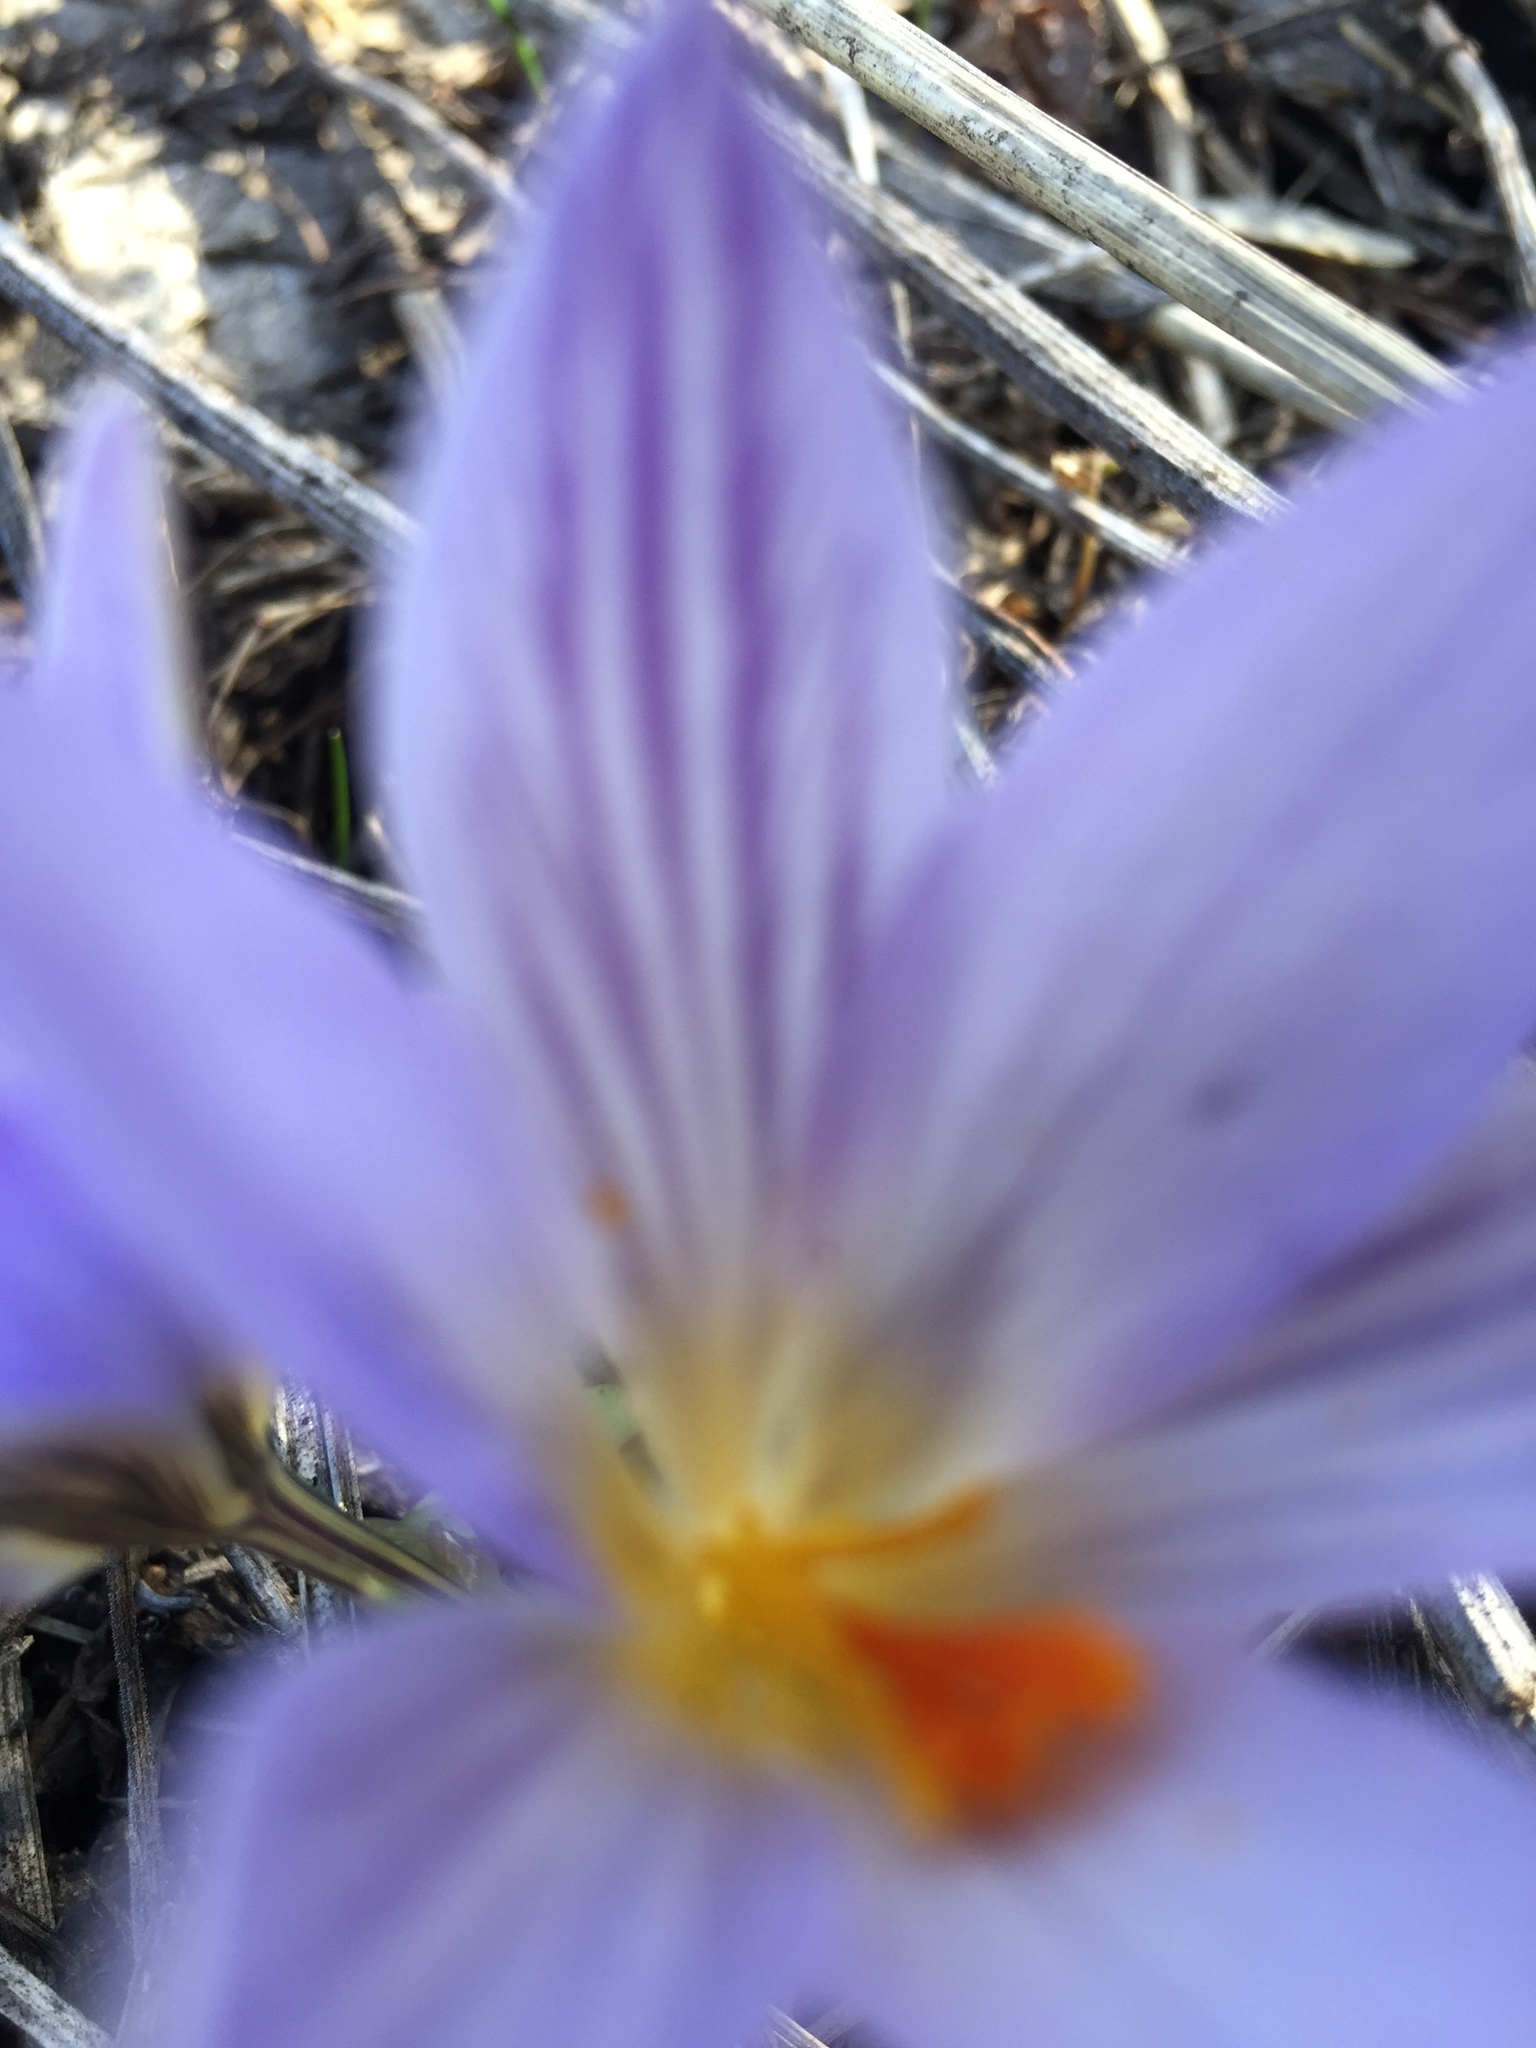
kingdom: Plantae
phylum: Tracheophyta
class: Liliopsida
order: Asparagales
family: Iridaceae
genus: Crocus
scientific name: Crocus reticulatus
